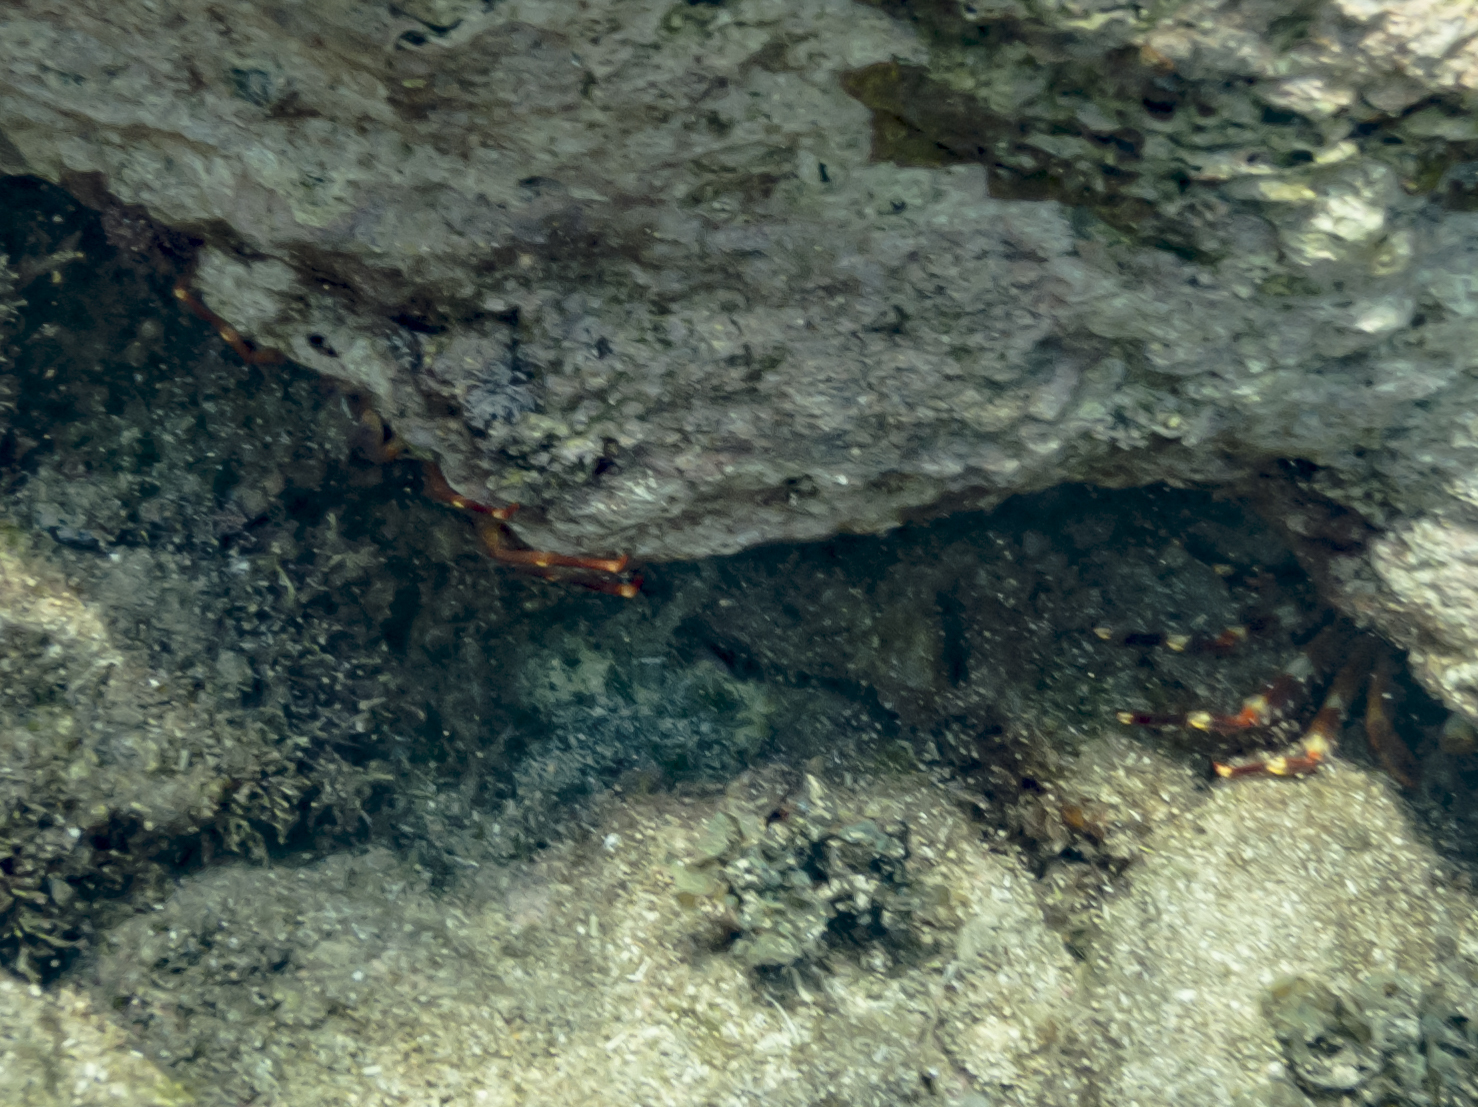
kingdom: Animalia
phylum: Arthropoda
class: Malacostraca
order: Decapoda
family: Percnidae
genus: Percnon
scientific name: Percnon gibbesi
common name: Nimble spray crab
